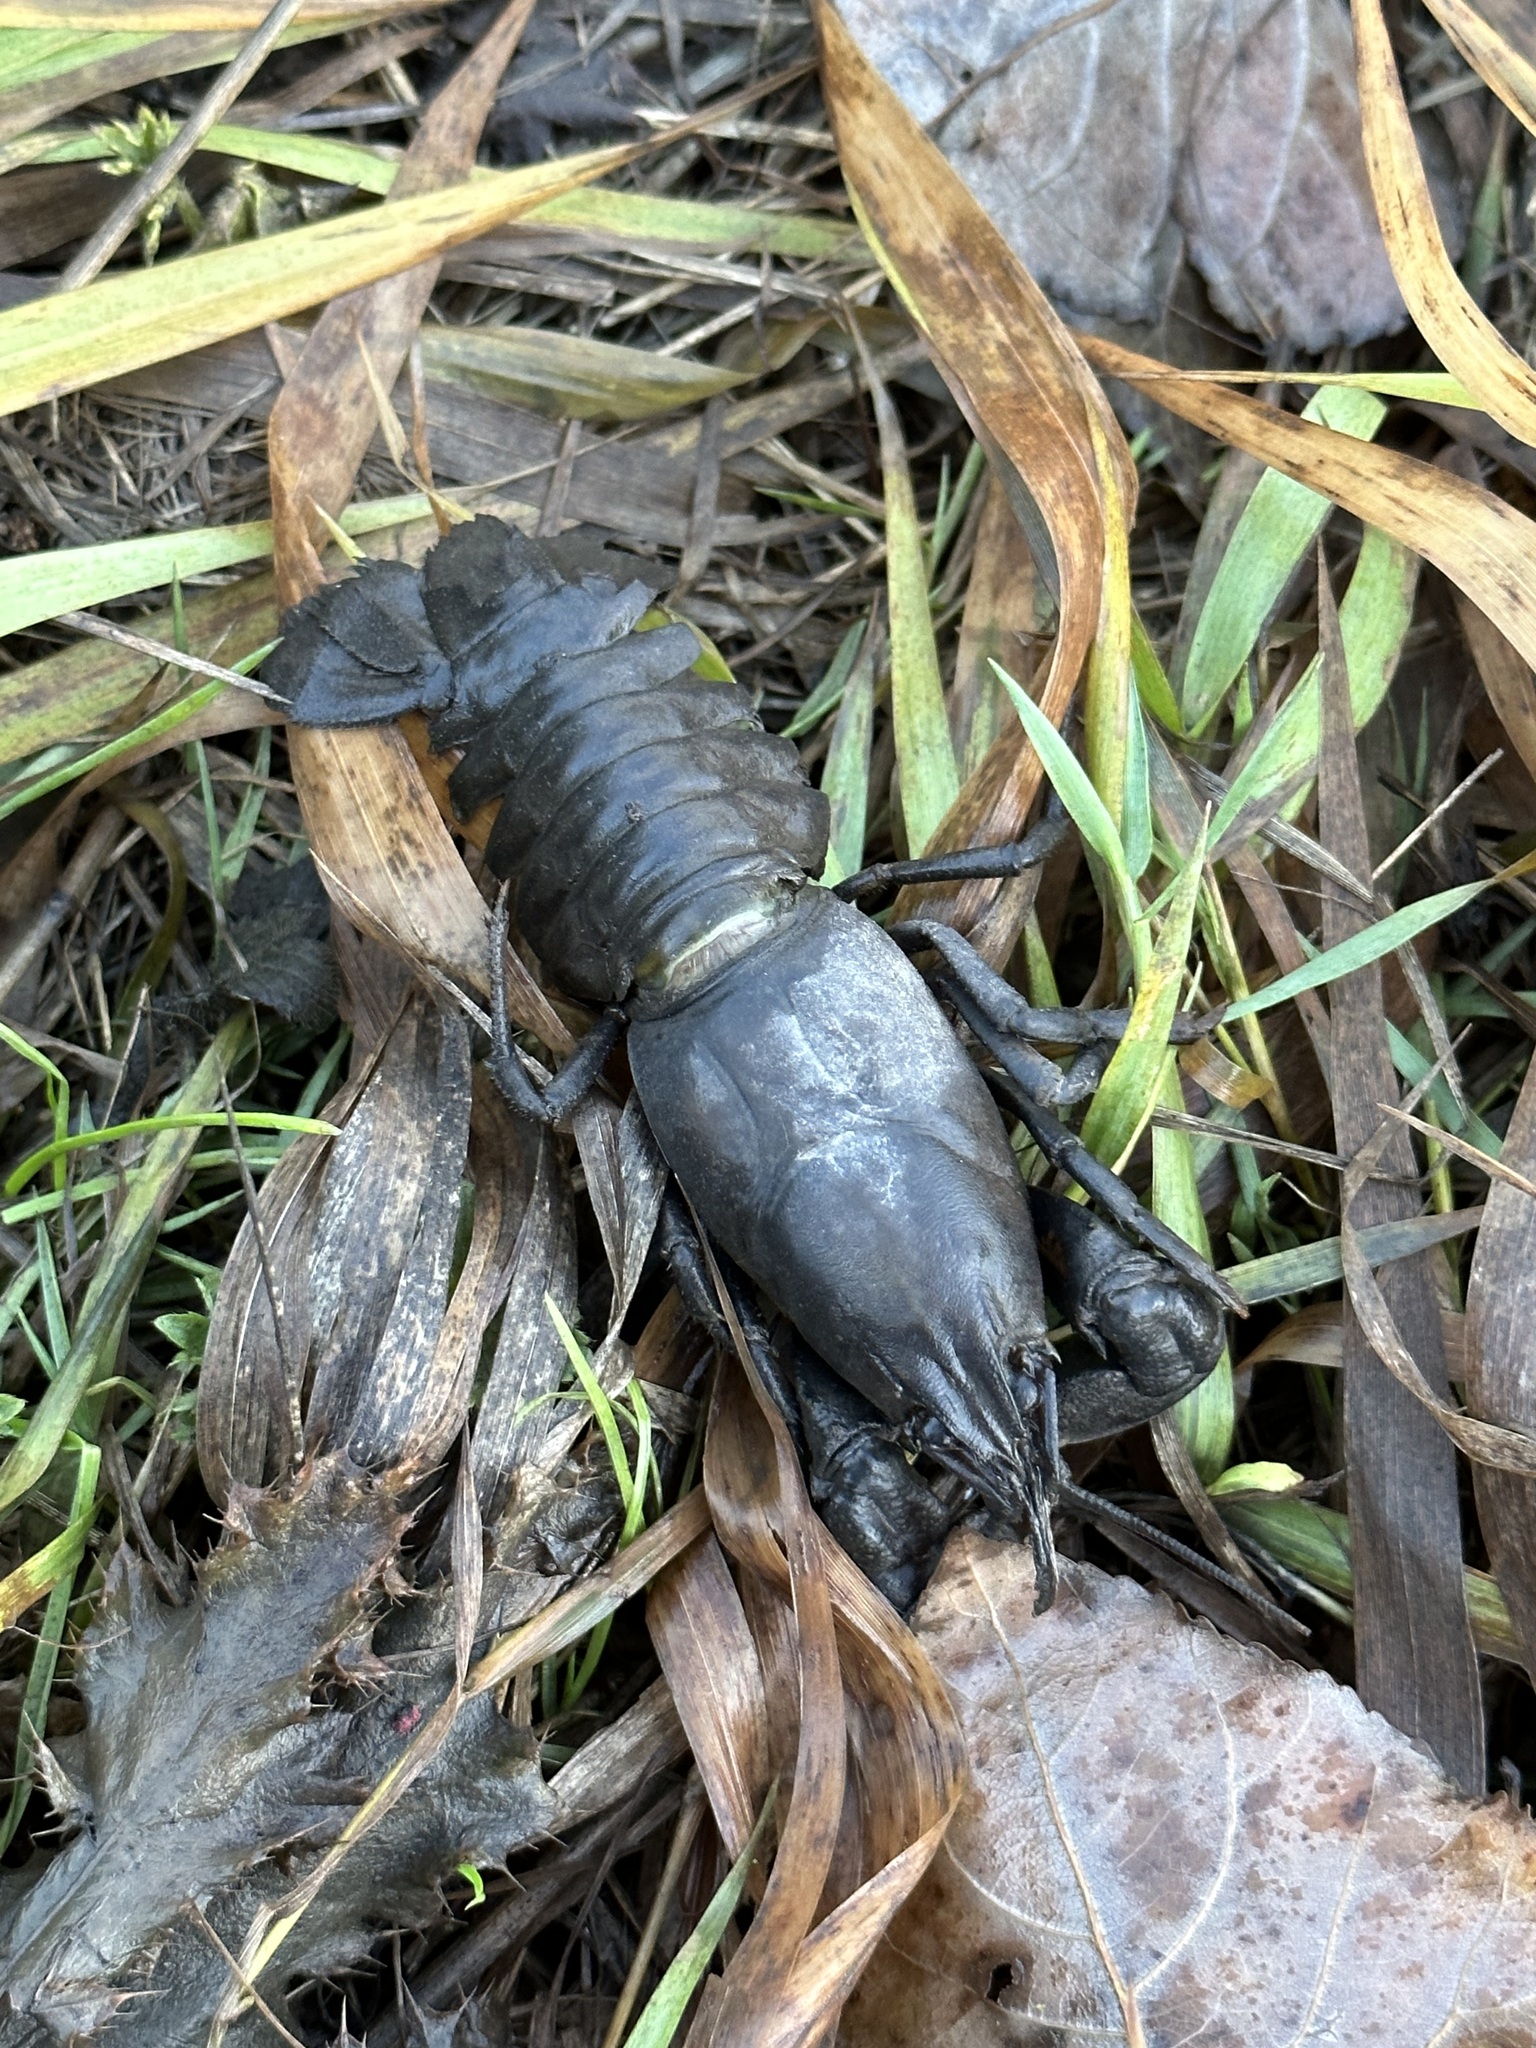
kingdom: Animalia
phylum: Arthropoda
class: Malacostraca
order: Decapoda
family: Astacidae
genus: Pacifastacus
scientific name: Pacifastacus leniusculus
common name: Signal crayfish
